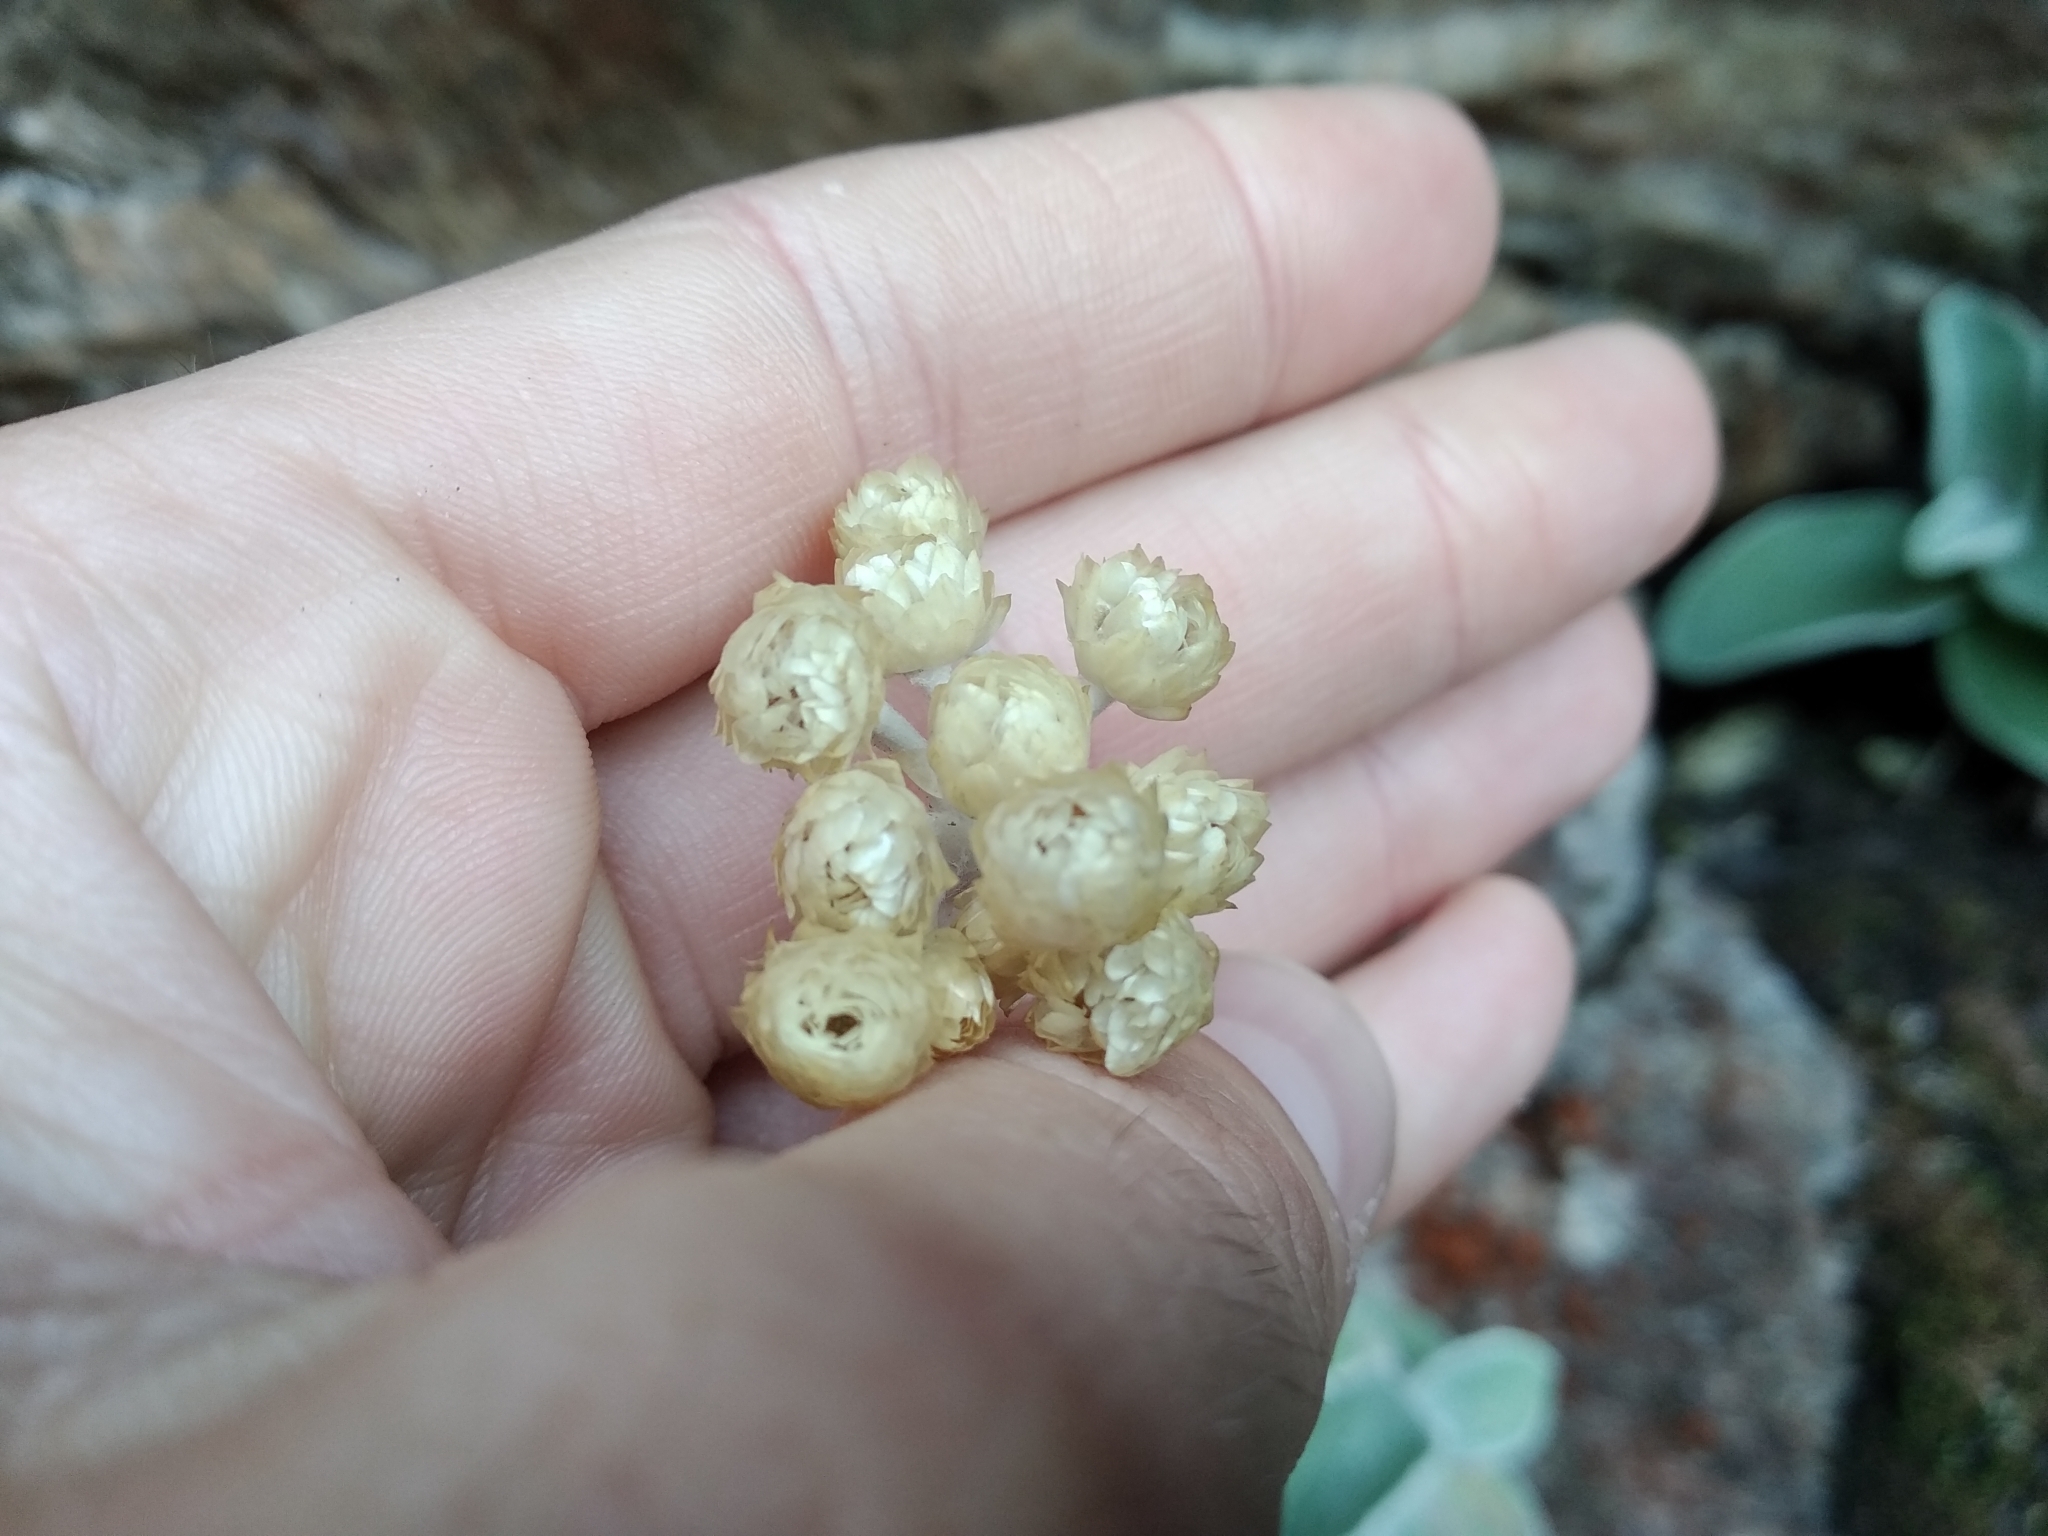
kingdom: Plantae
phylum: Tracheophyta
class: Magnoliopsida
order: Asterales
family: Asteraceae
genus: Helichrysum
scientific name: Helichrysum grandiflorum
